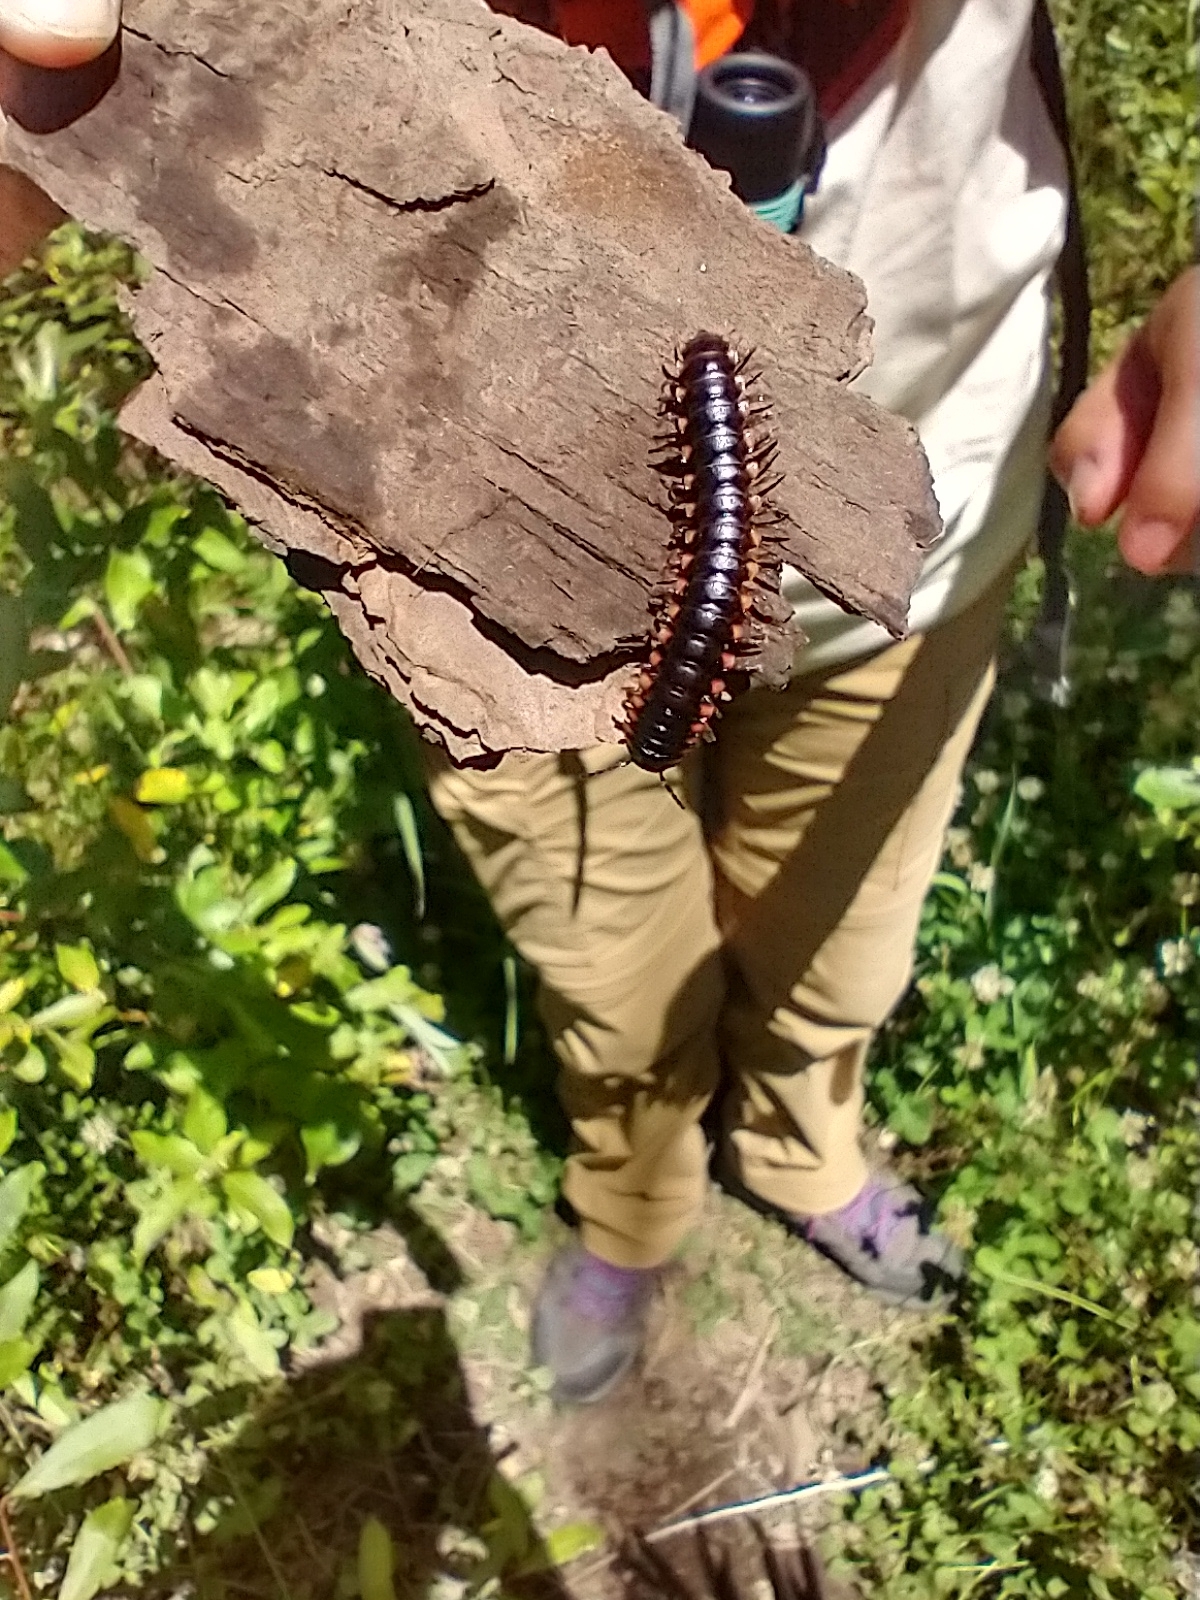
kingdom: Animalia
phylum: Arthropoda
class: Diplopoda
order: Polydesmida
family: Xystodesmidae
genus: Chonaphe
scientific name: Chonaphe armata
